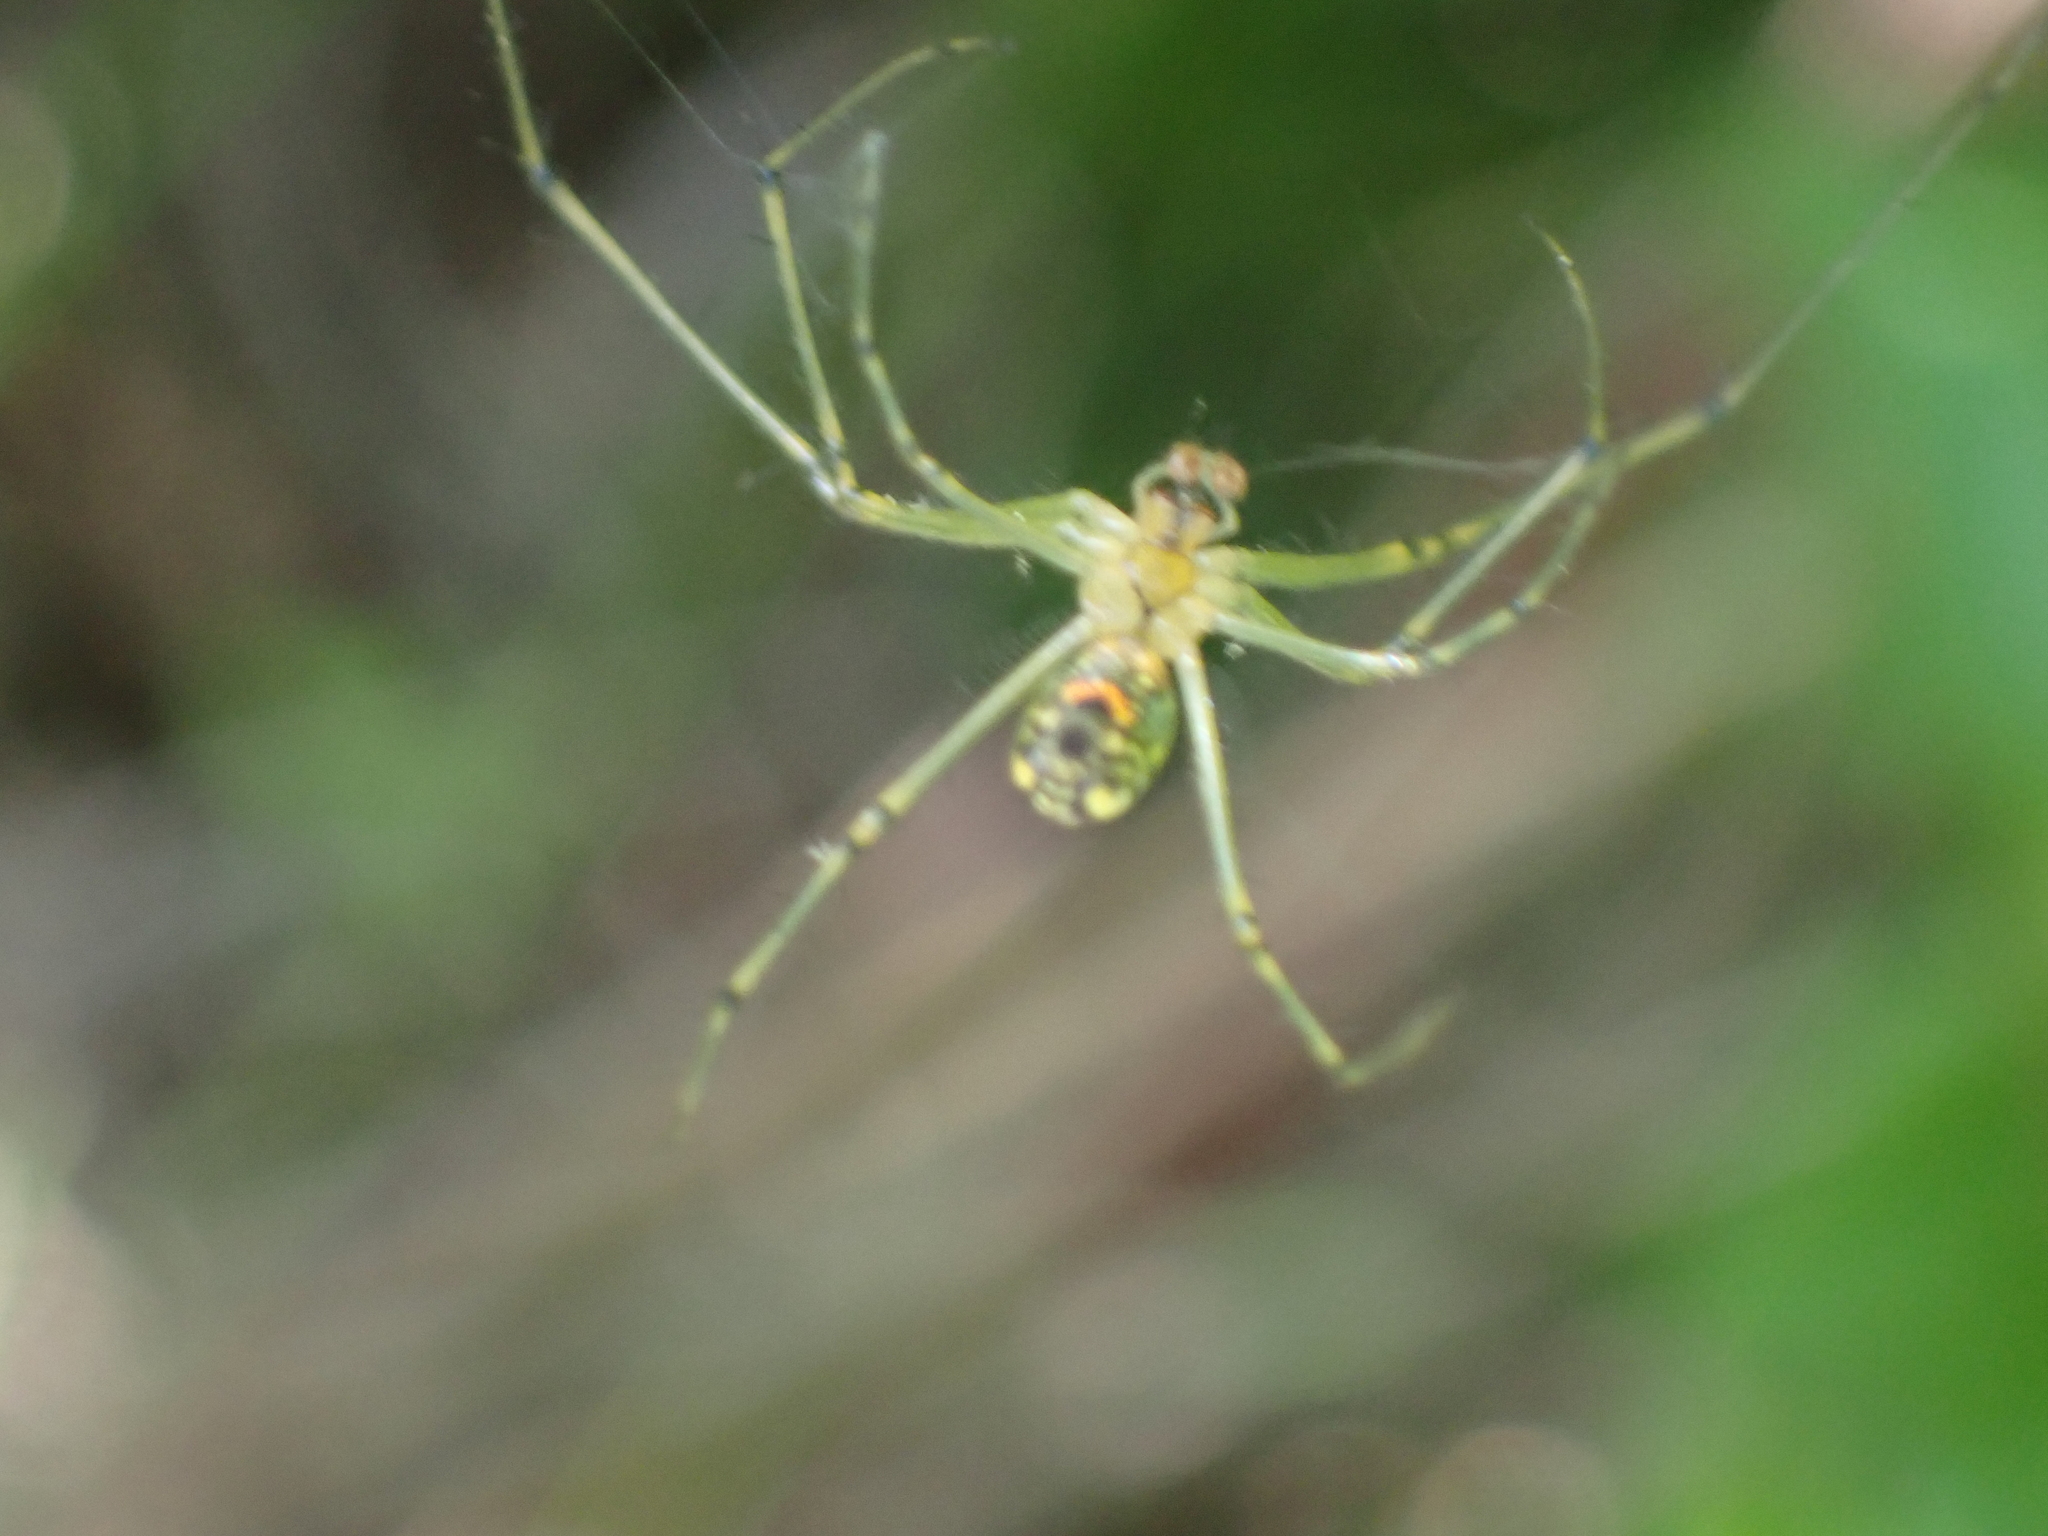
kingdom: Animalia
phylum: Arthropoda
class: Arachnida
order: Araneae
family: Tetragnathidae
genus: Leucauge
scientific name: Leucauge venusta
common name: Longjawed orb weavers
